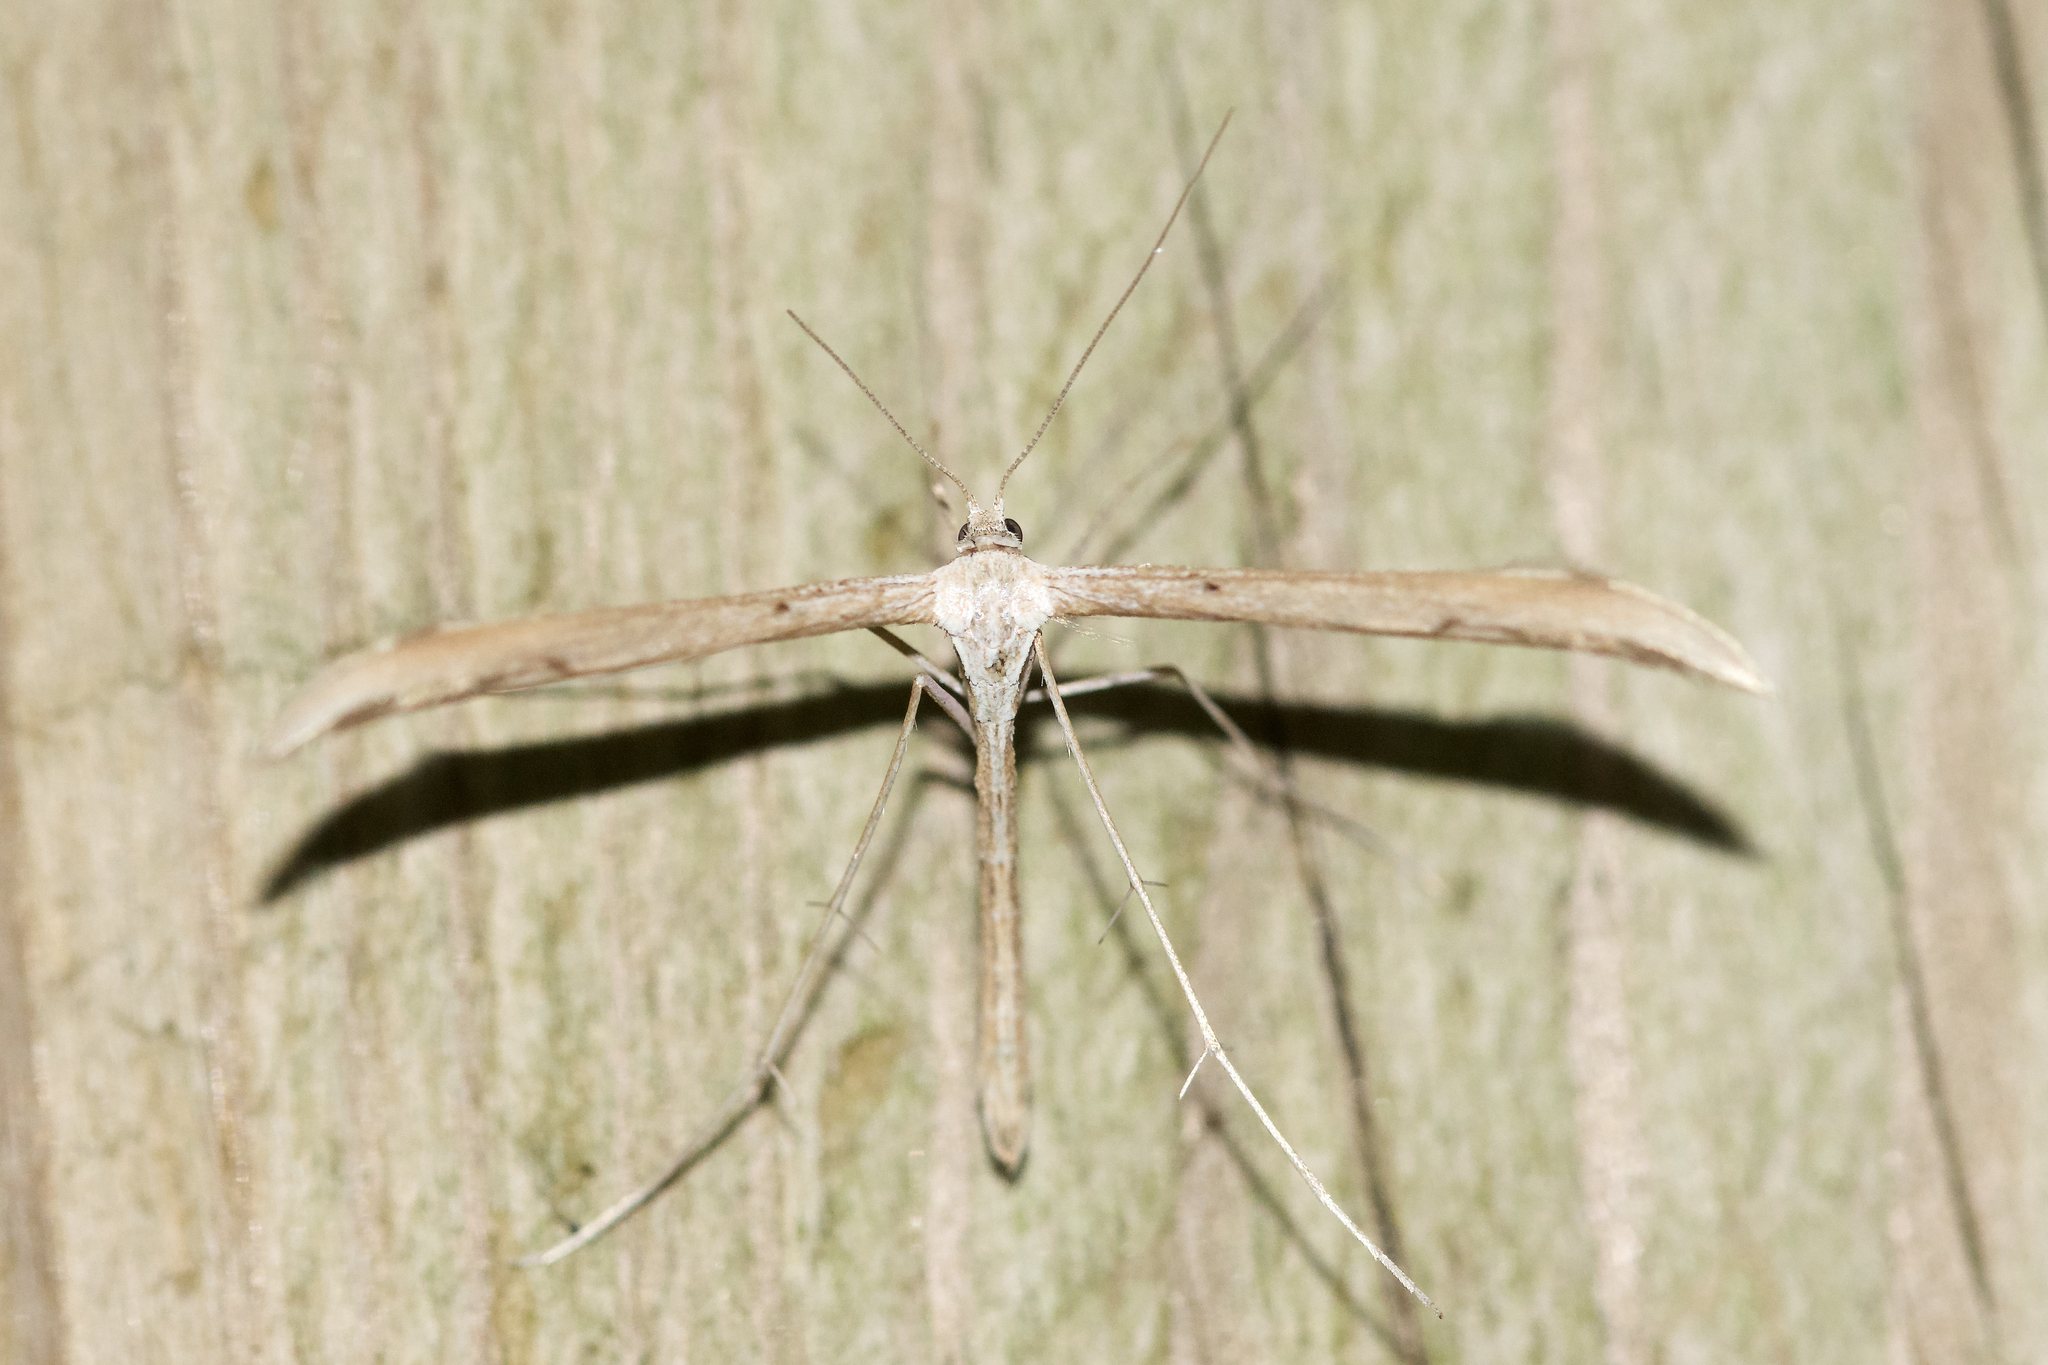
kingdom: Animalia
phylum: Arthropoda
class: Insecta
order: Lepidoptera
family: Pterophoridae
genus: Emmelina
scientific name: Emmelina monodactyla
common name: Common plume
